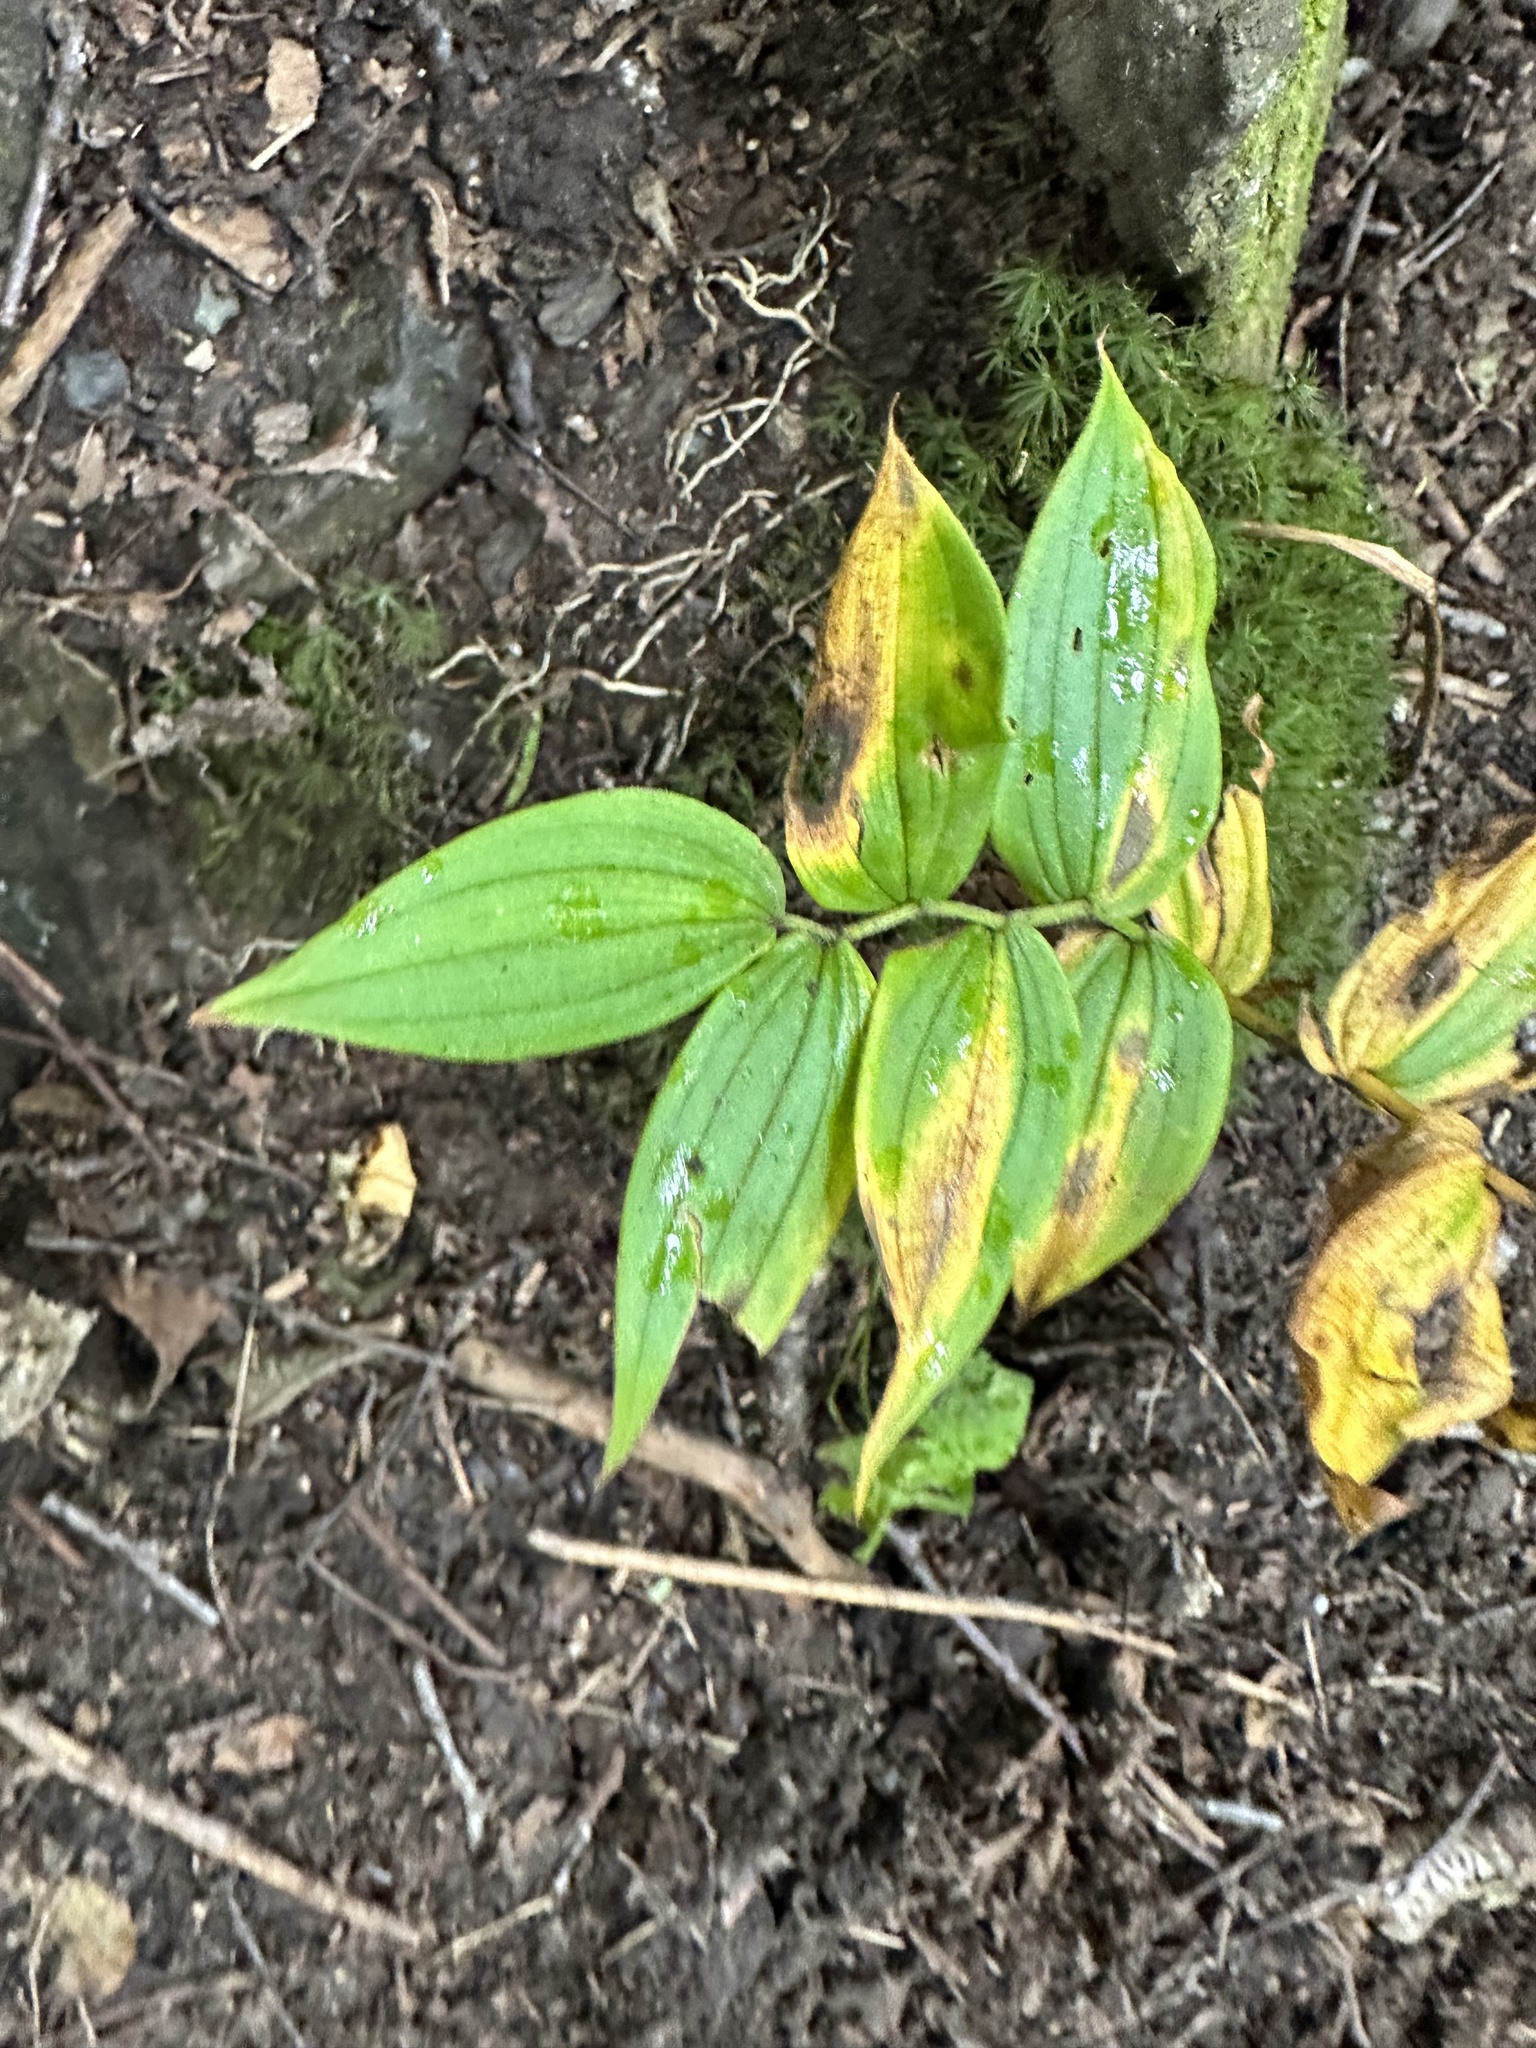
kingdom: Plantae
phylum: Tracheophyta
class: Liliopsida
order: Liliales
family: Liliaceae
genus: Streptopus
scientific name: Streptopus lanceolatus
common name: Rose mandarin
